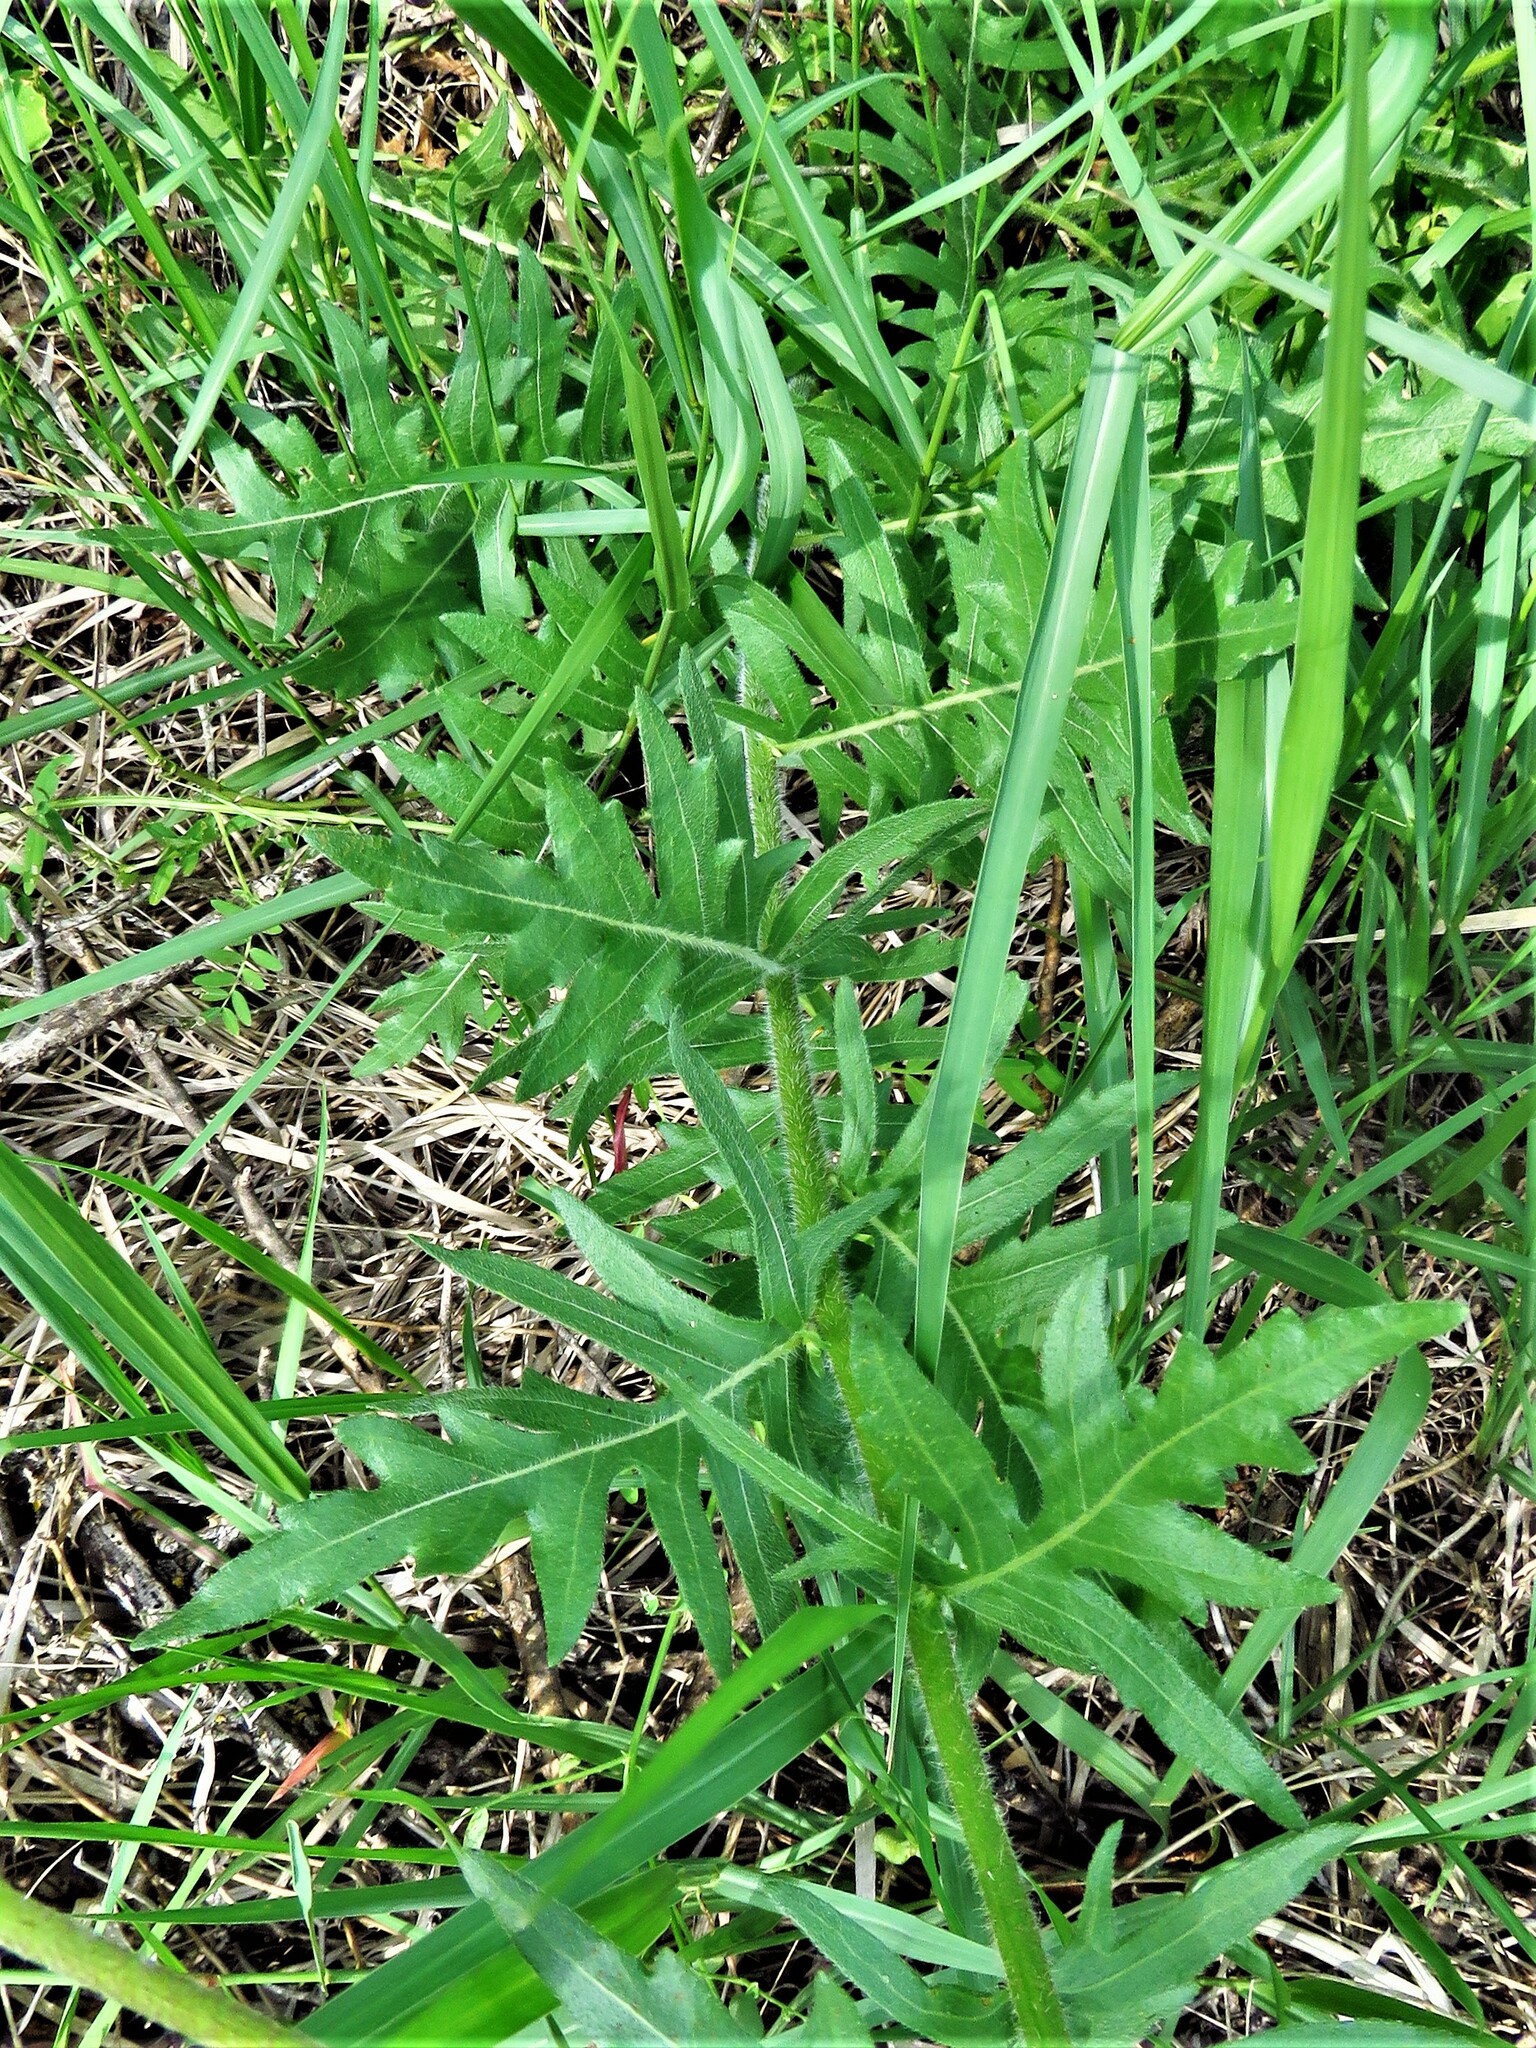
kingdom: Plantae
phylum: Tracheophyta
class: Magnoliopsida
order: Asterales
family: Asteraceae
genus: Engelmannia
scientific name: Engelmannia peristenia
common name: Engelmann's daisy
